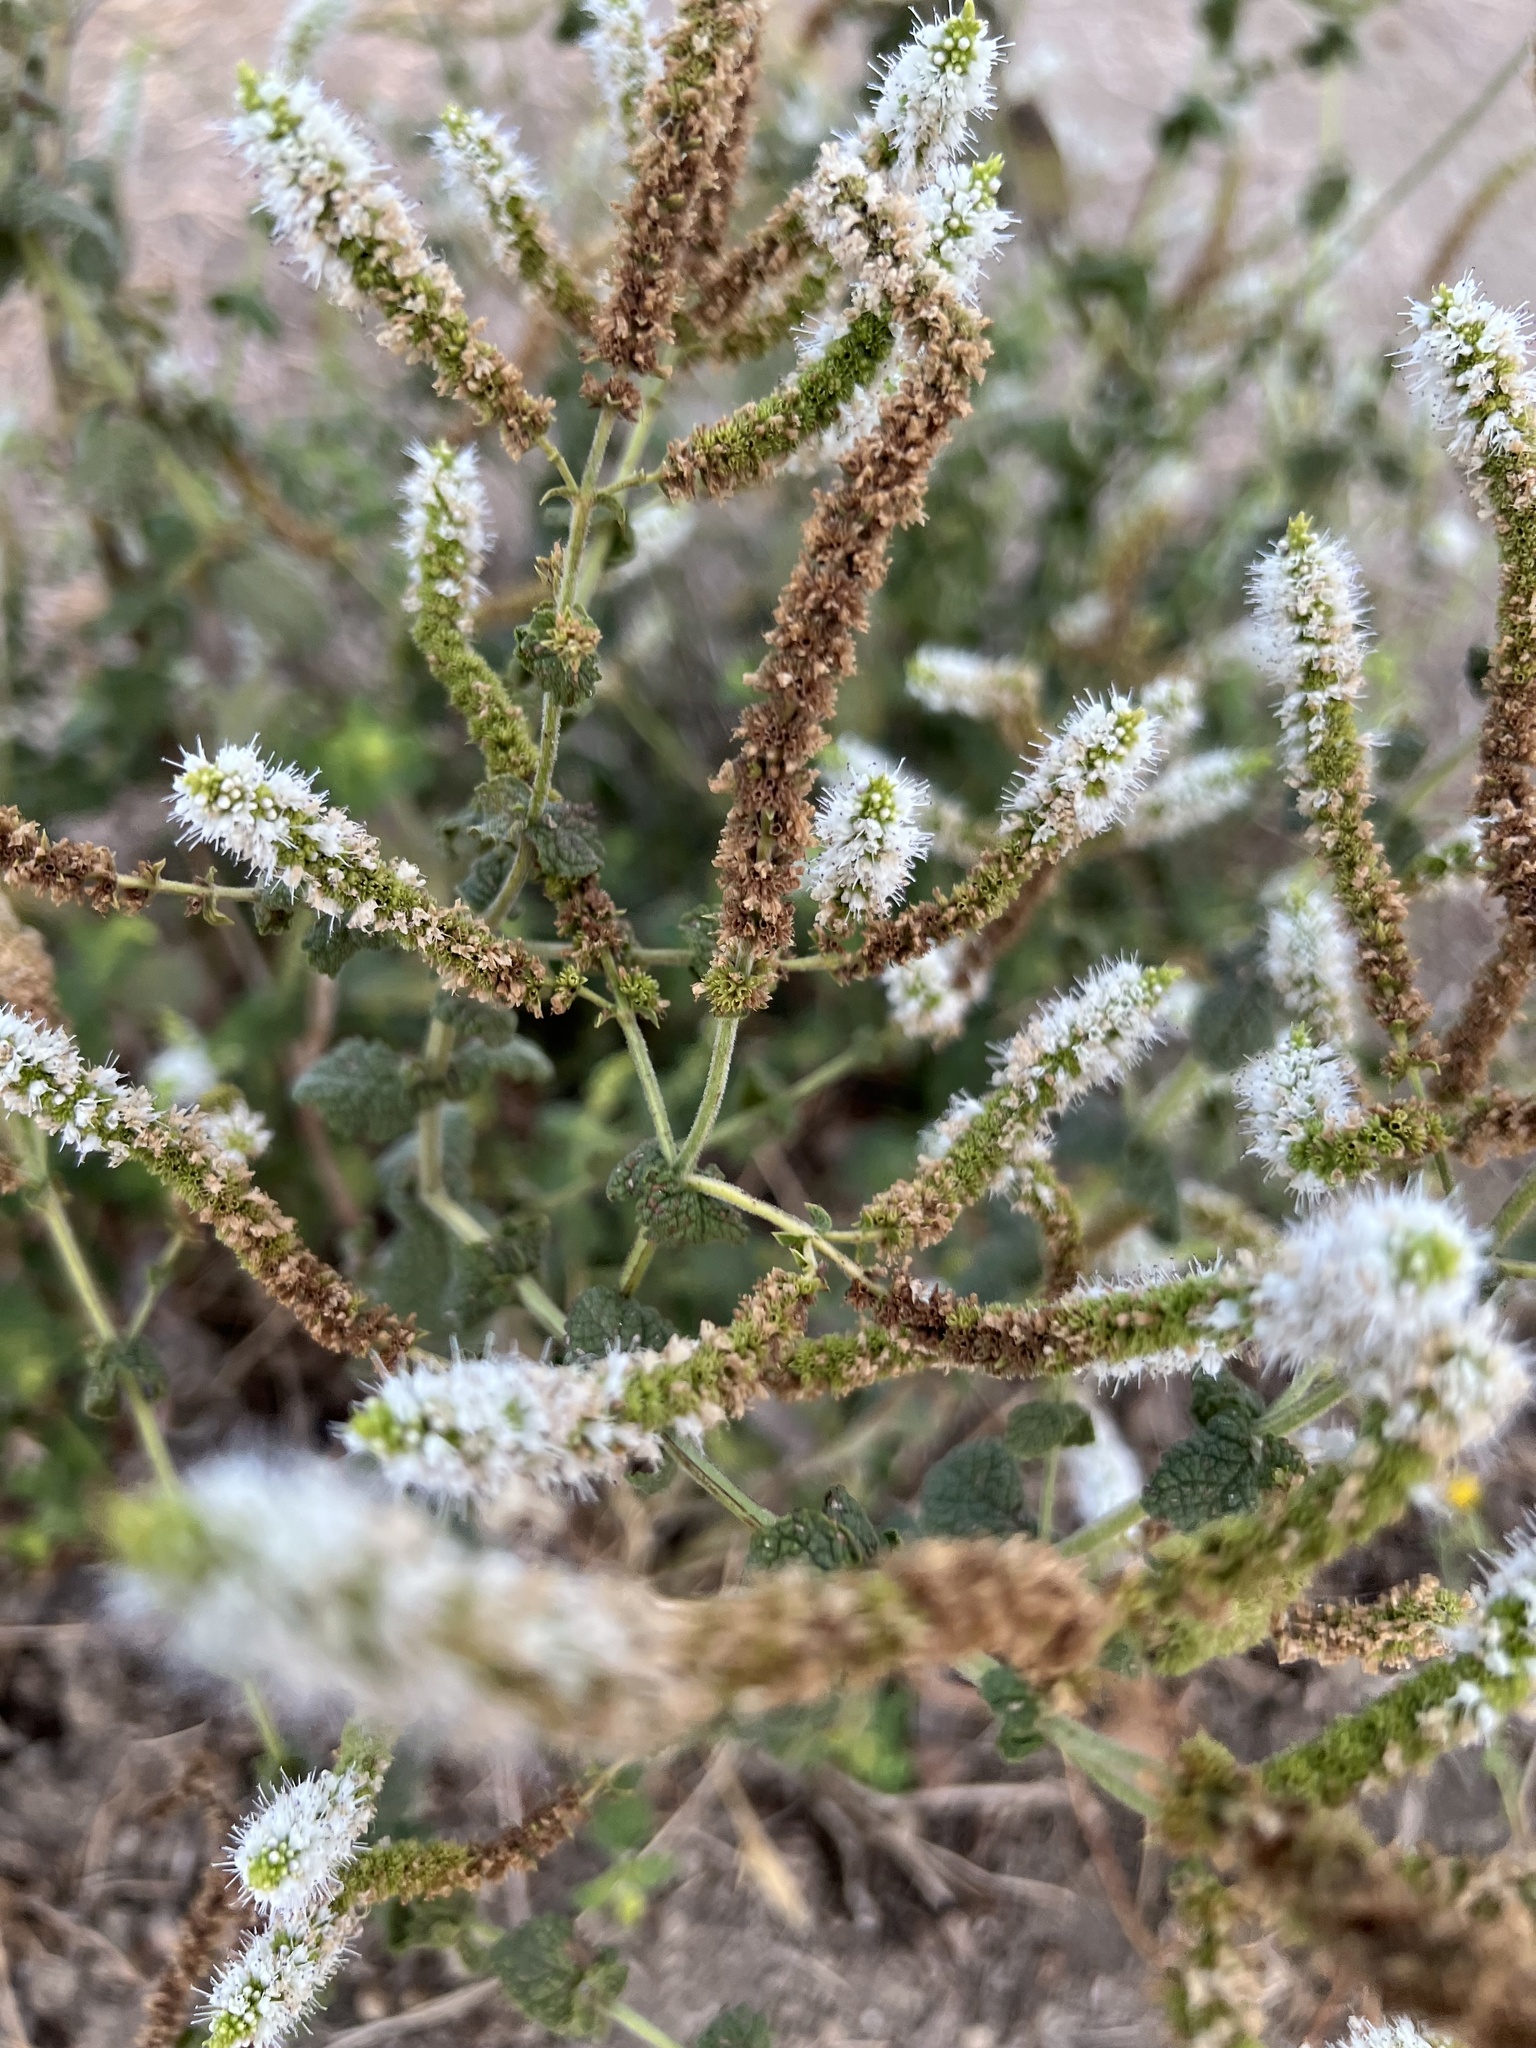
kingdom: Plantae
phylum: Tracheophyta
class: Magnoliopsida
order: Lamiales
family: Lamiaceae
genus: Mentha
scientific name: Mentha suaveolens
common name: Apple mint
